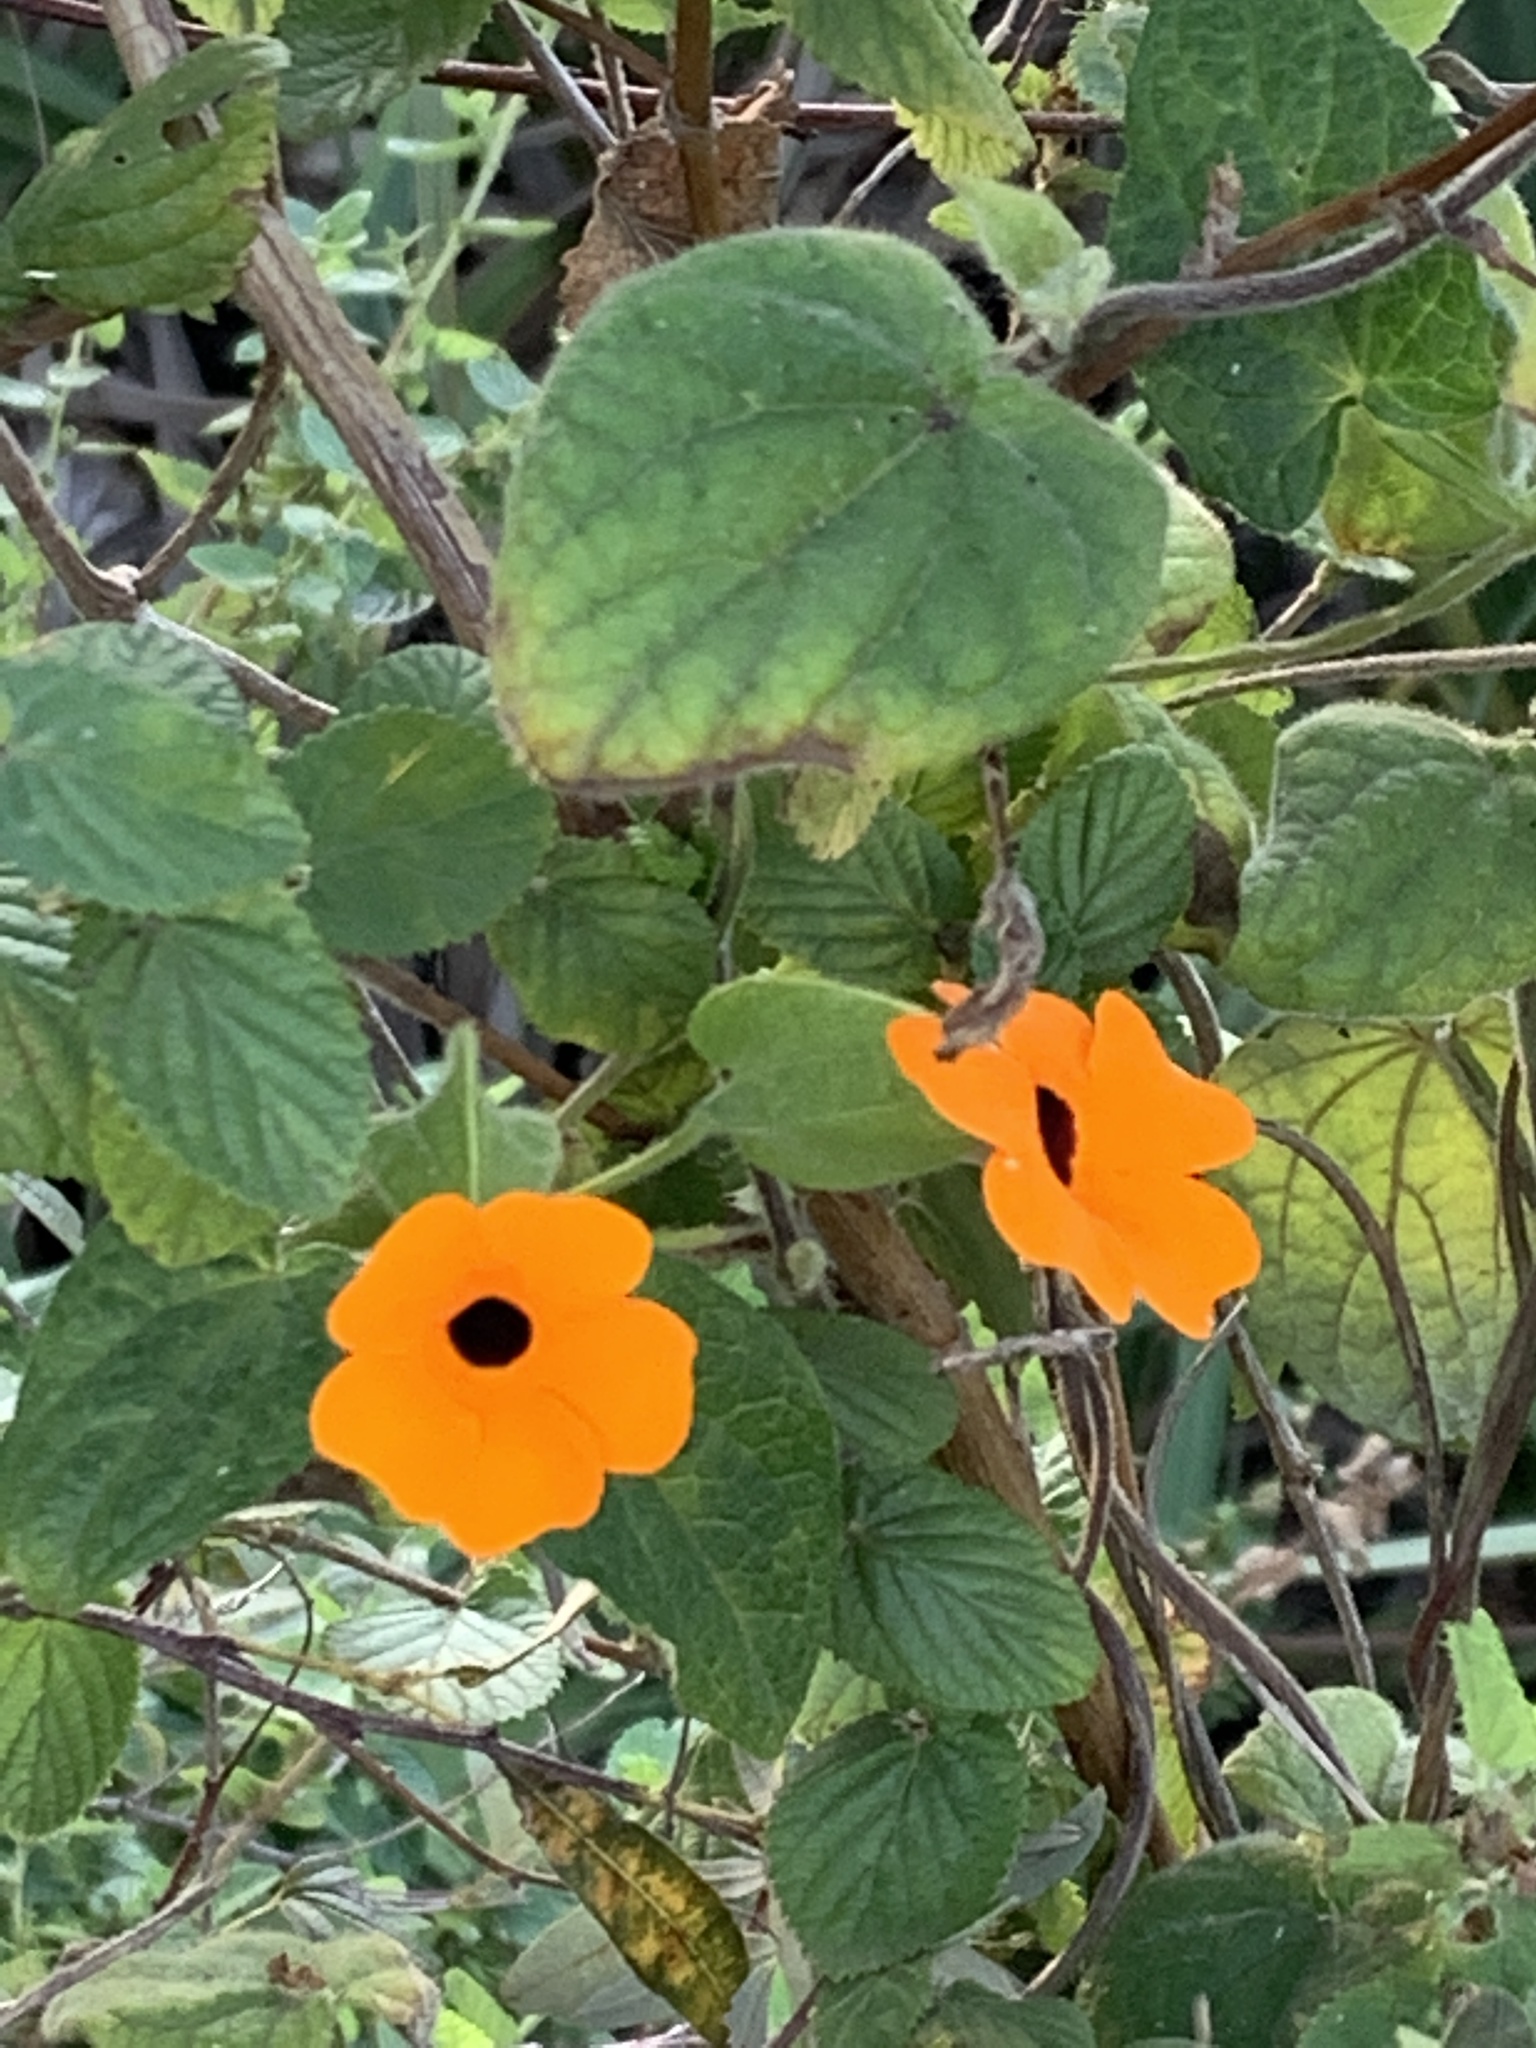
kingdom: Plantae
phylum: Tracheophyta
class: Magnoliopsida
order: Lamiales
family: Acanthaceae
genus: Thunbergia
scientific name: Thunbergia alata
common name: Blackeyed susan vine
